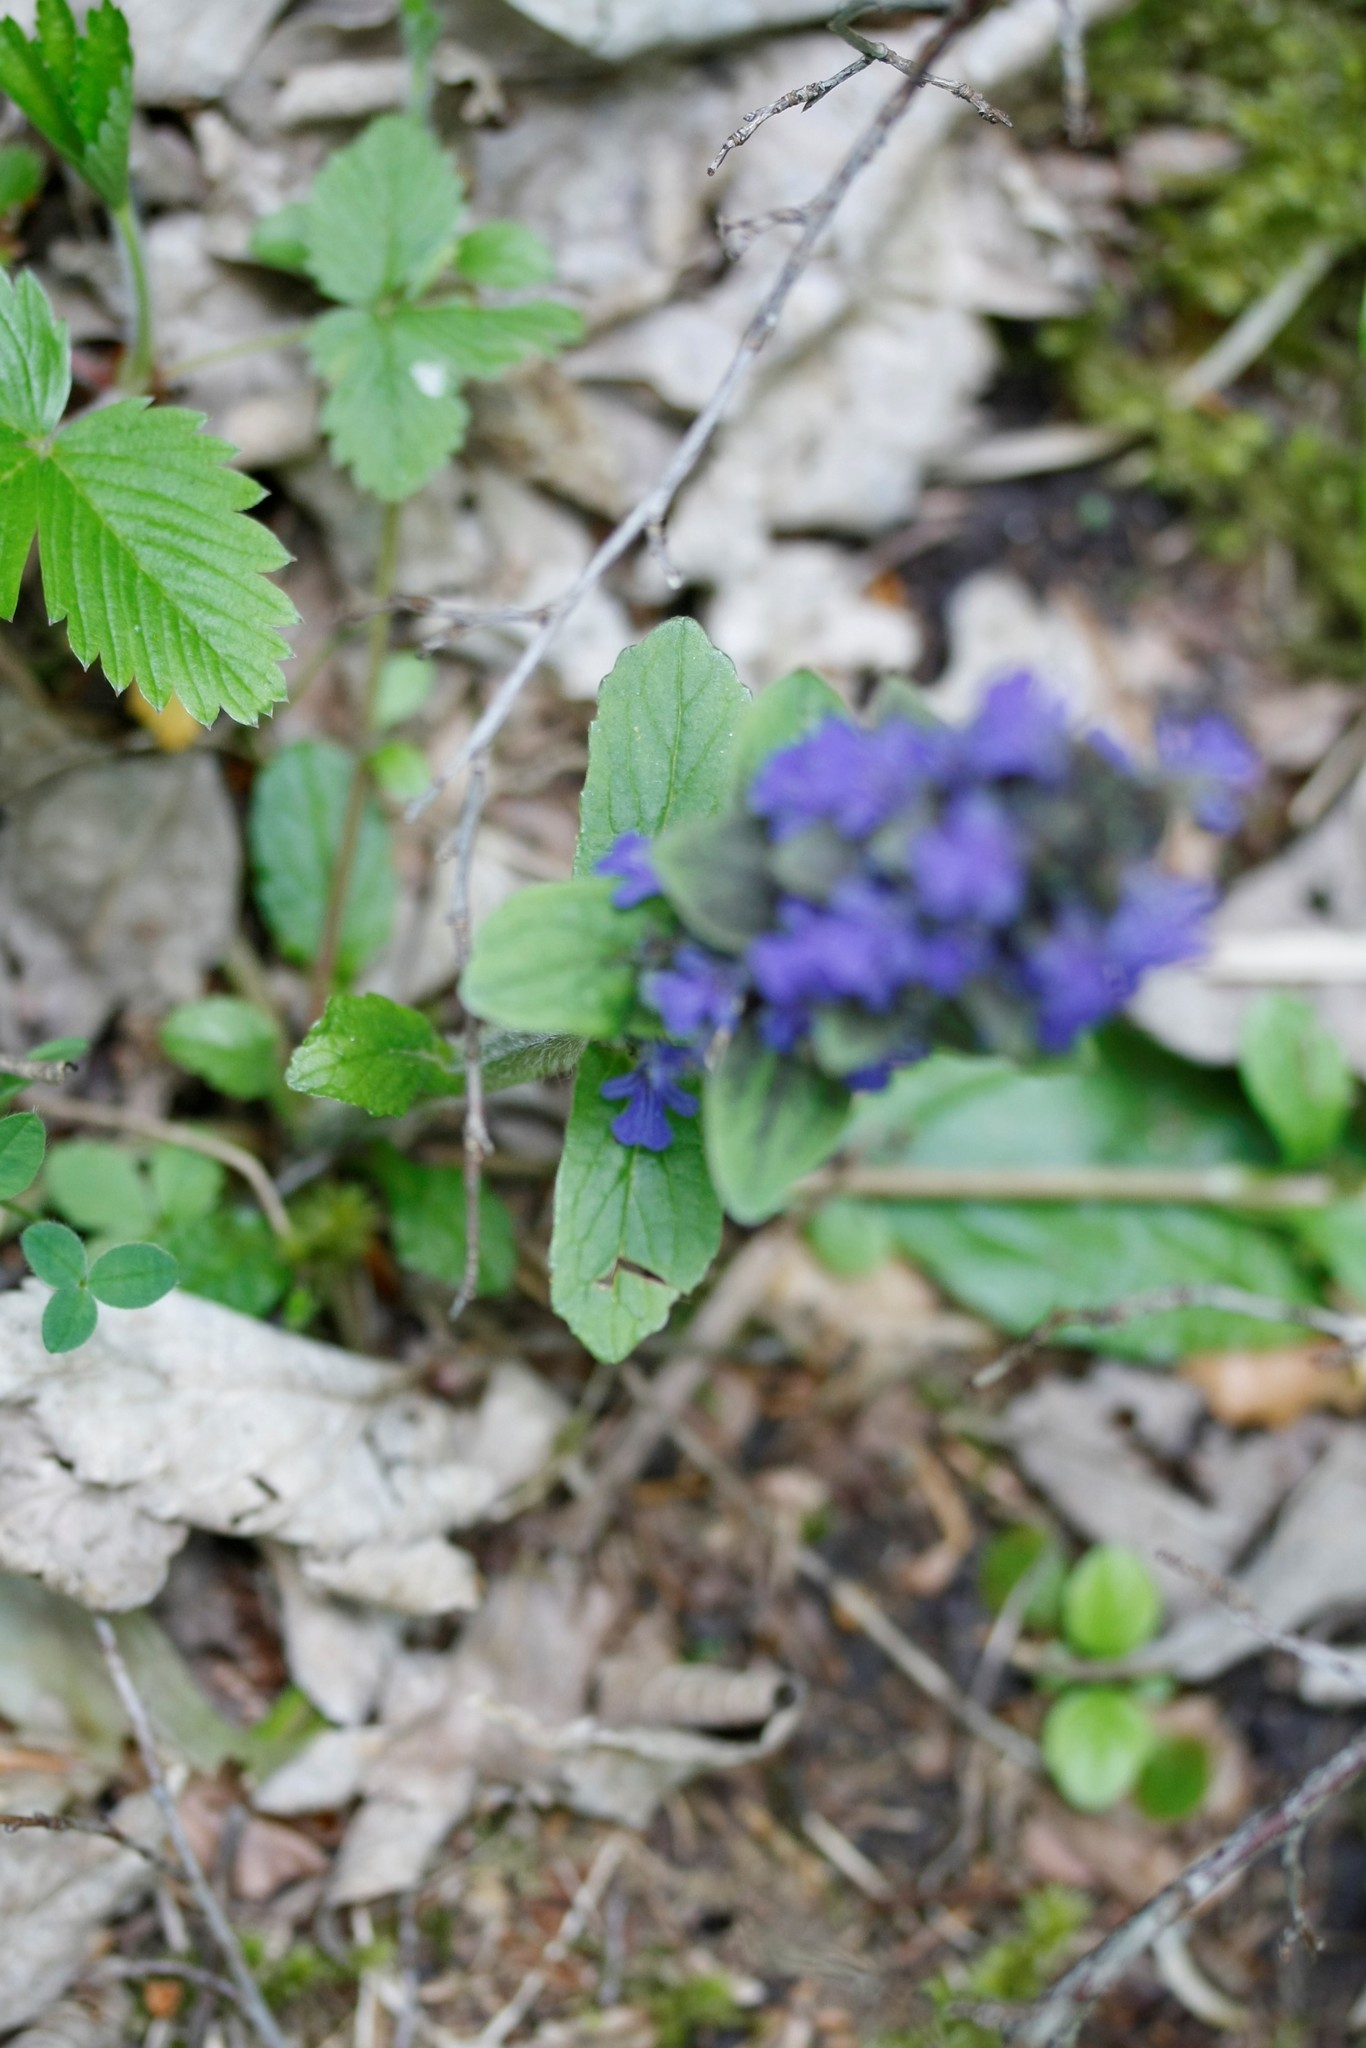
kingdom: Plantae
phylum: Tracheophyta
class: Magnoliopsida
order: Lamiales
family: Lamiaceae
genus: Ajuga
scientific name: Ajuga reptans
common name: Bugle
